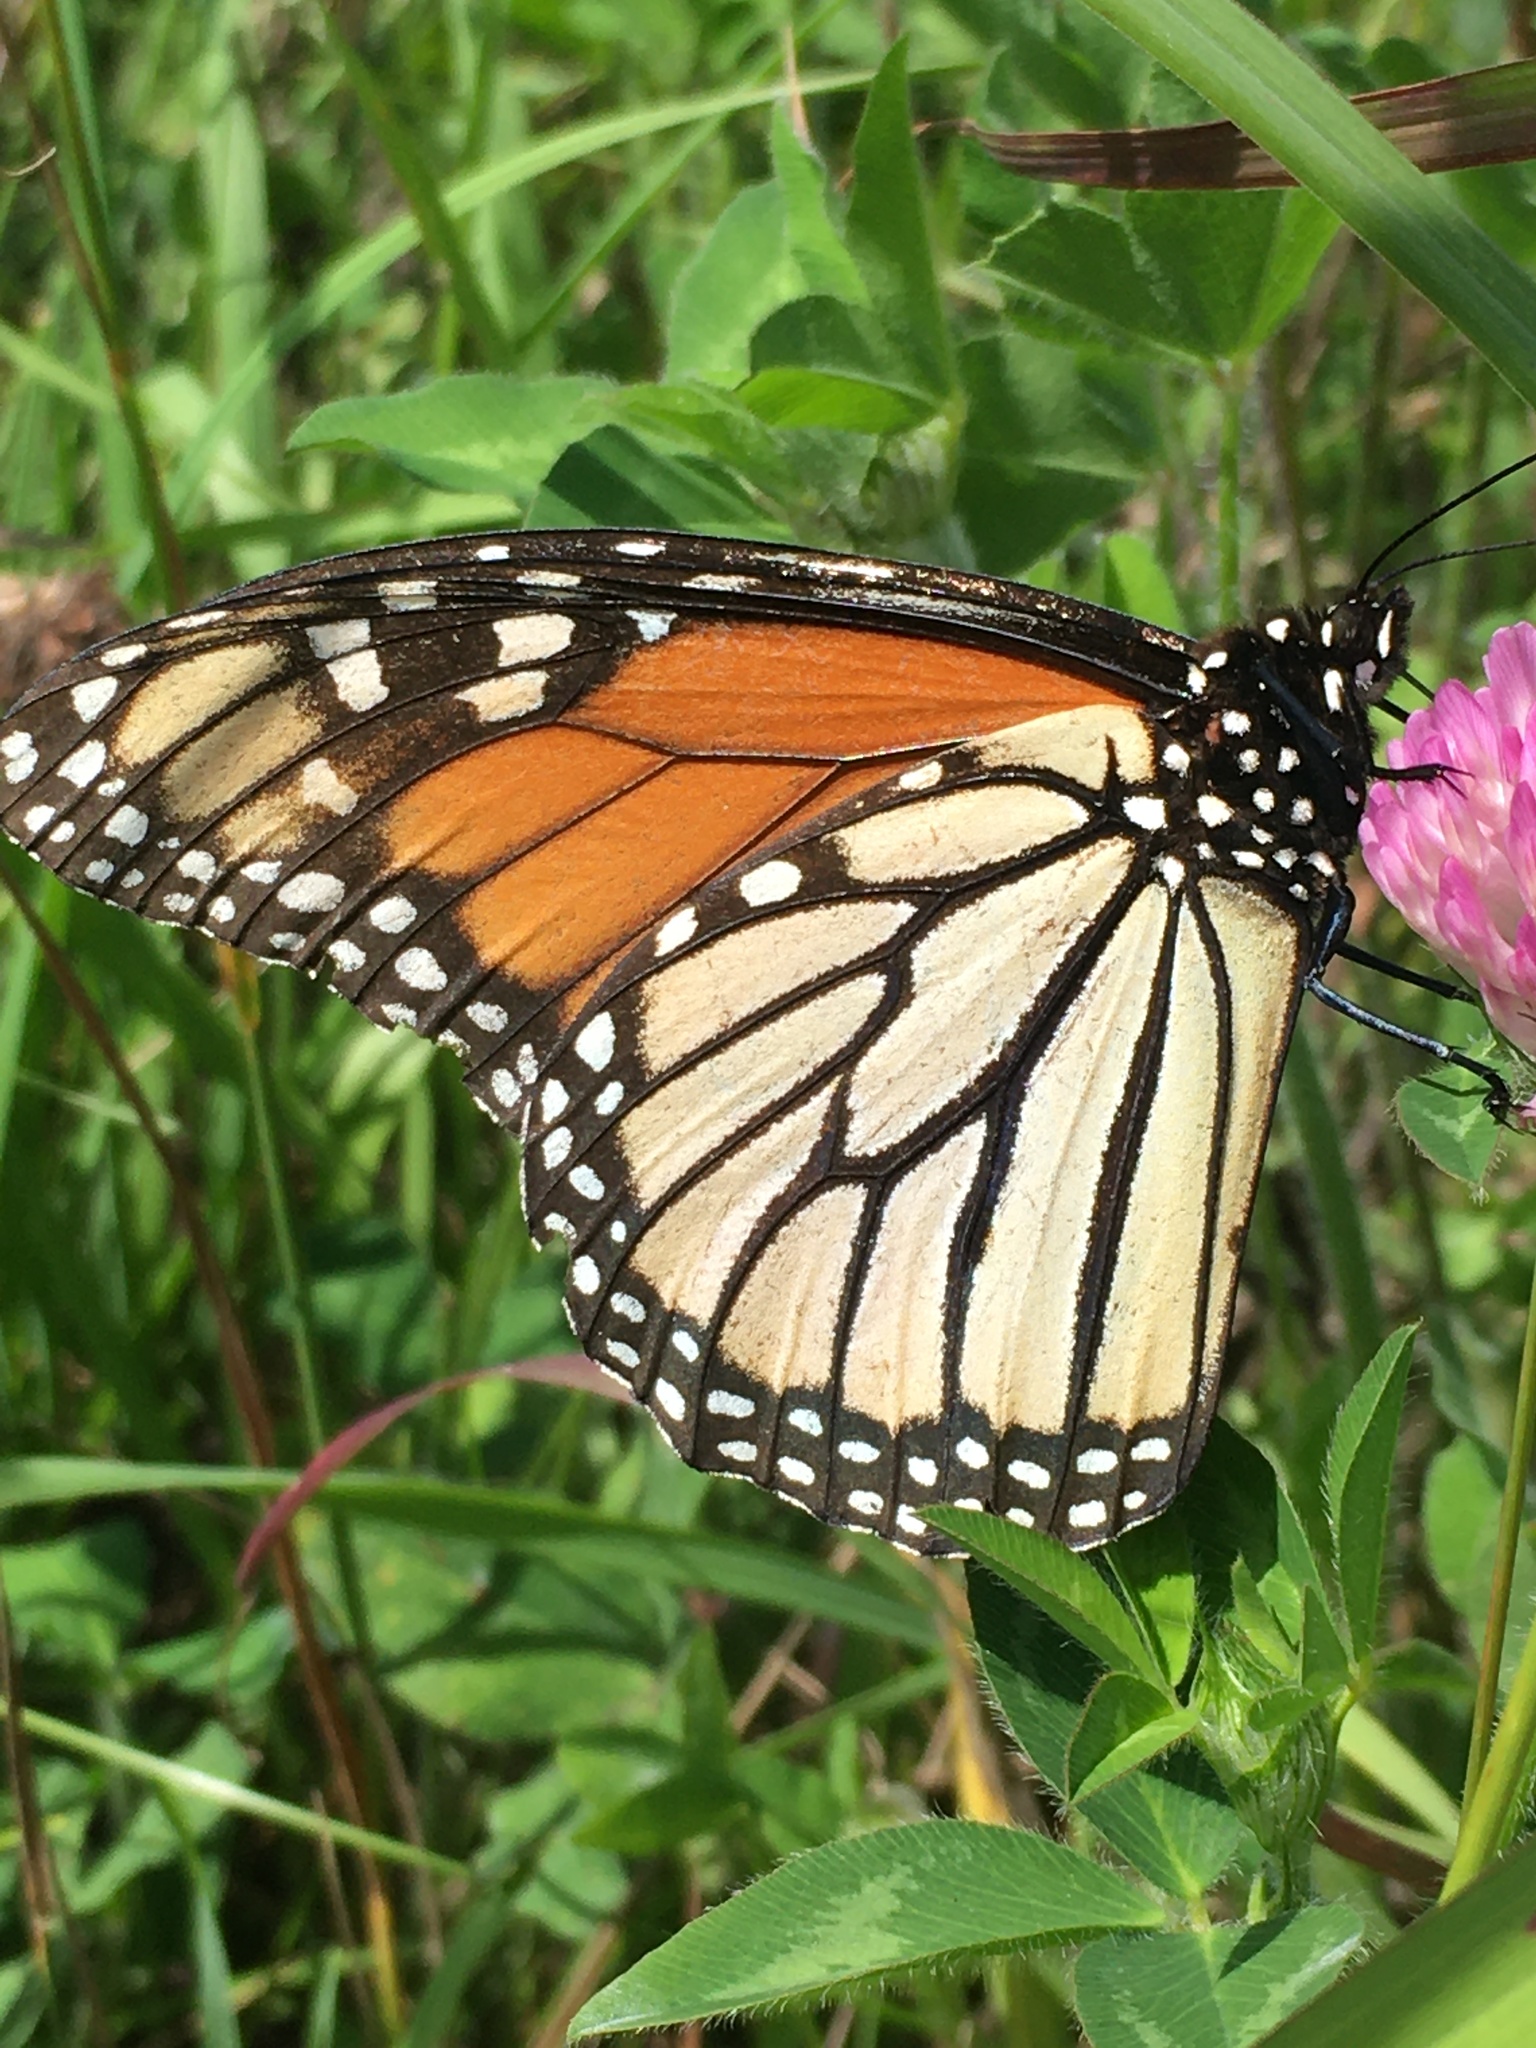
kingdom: Animalia
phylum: Arthropoda
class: Insecta
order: Lepidoptera
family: Nymphalidae
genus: Danaus
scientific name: Danaus plexippus
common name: Monarch
